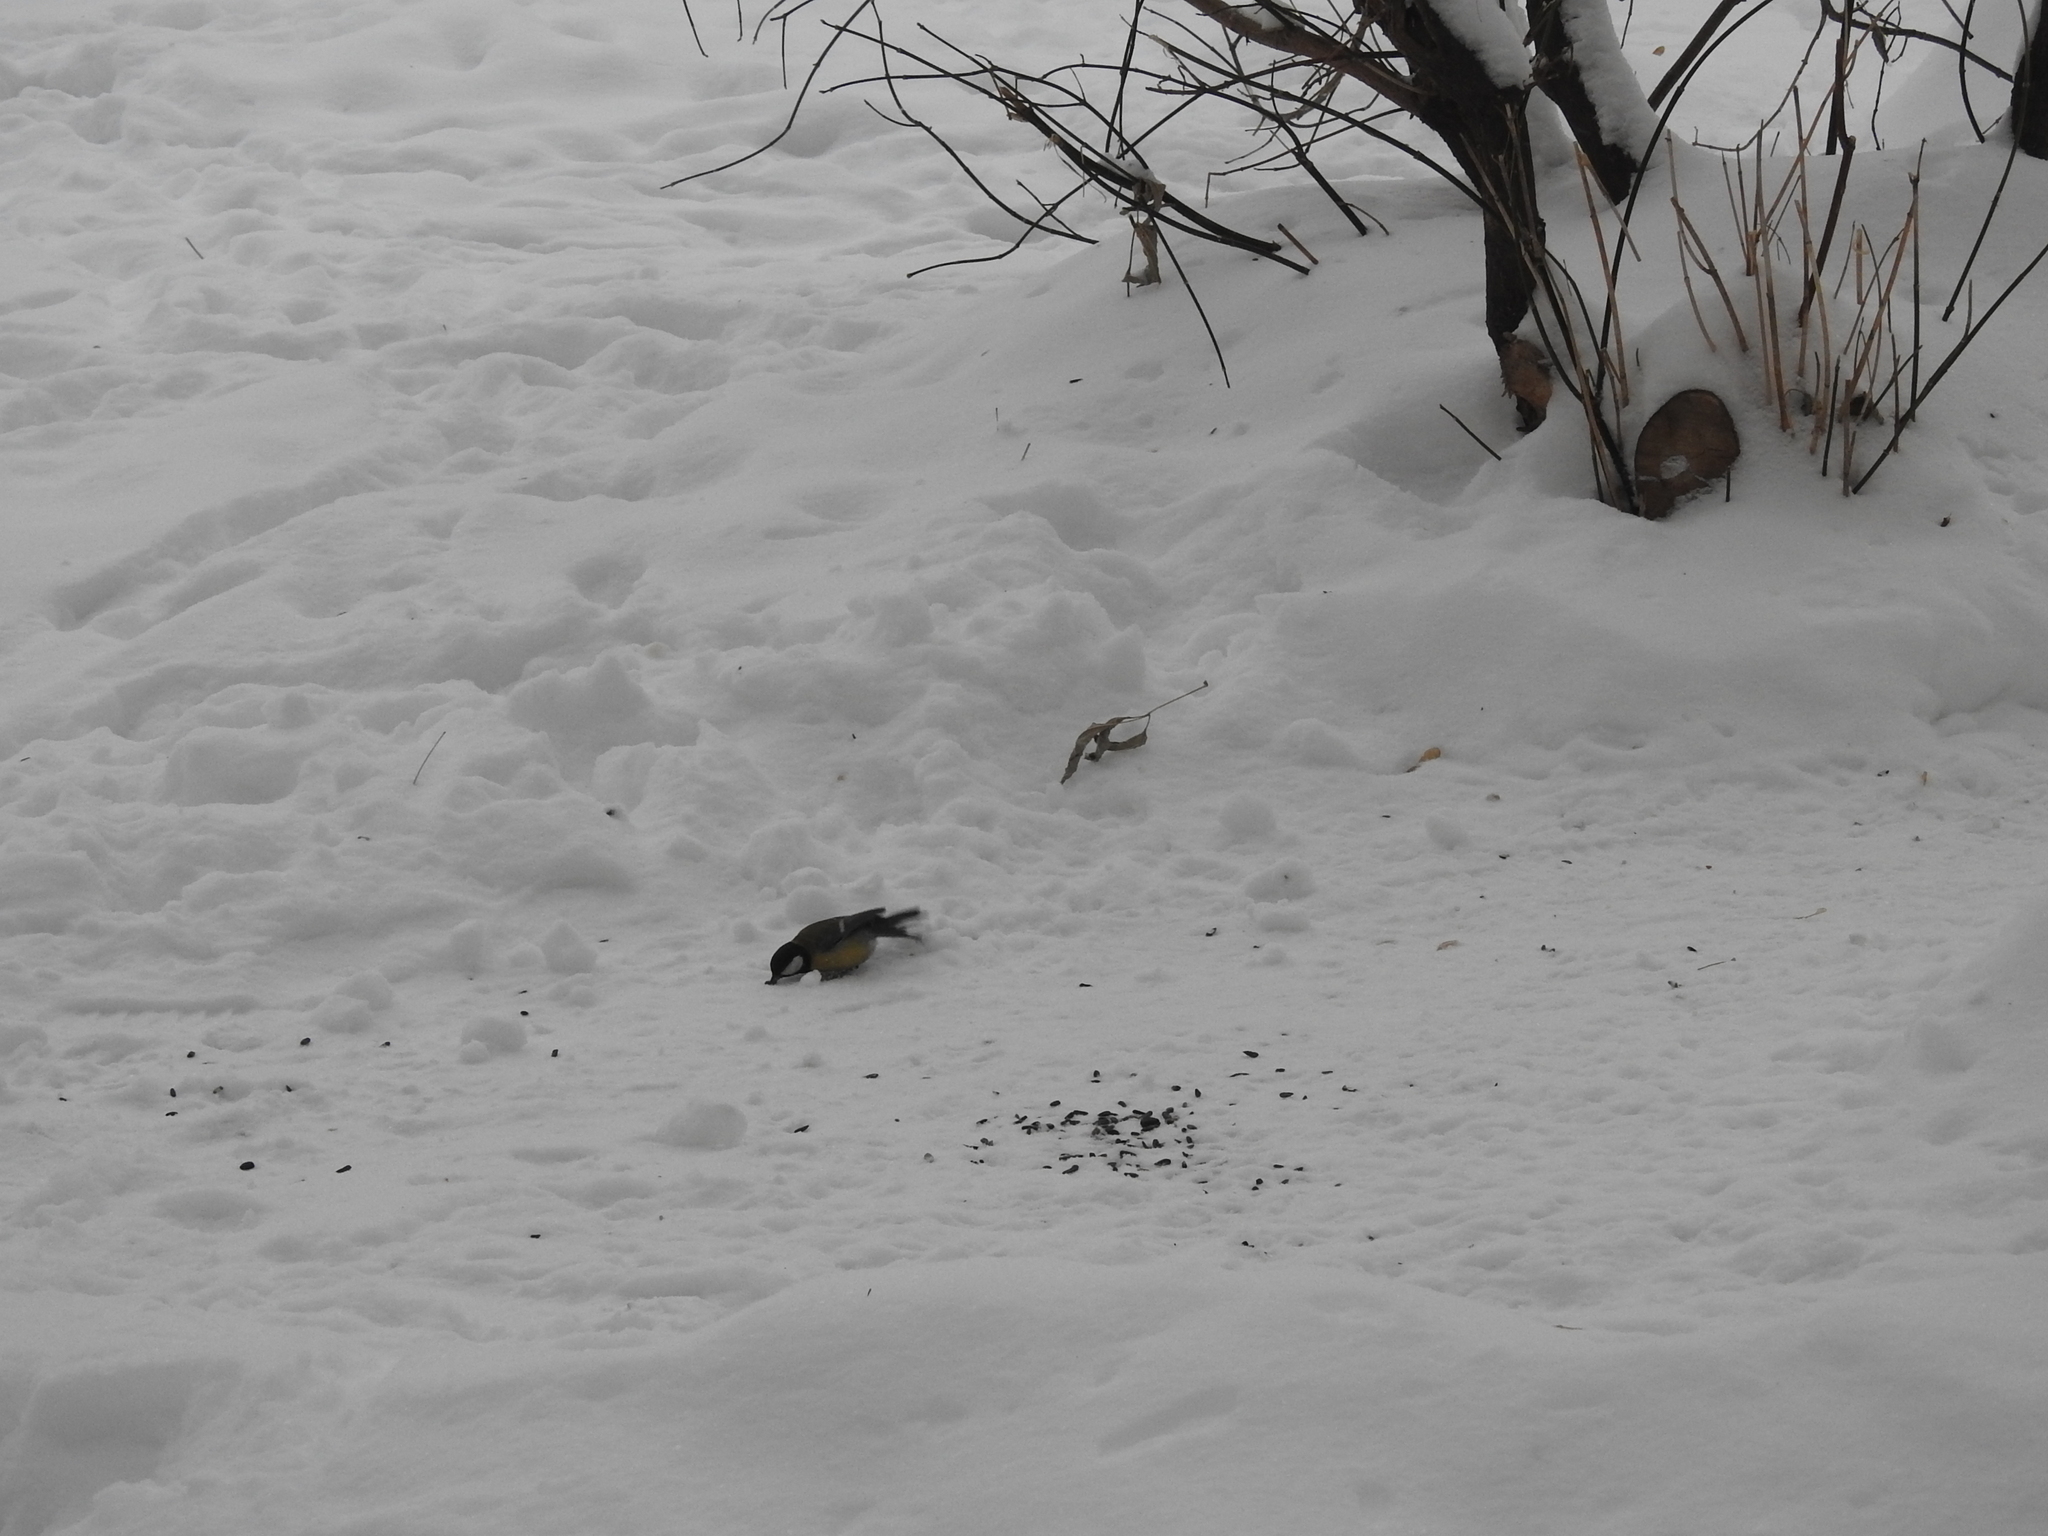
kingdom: Animalia
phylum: Chordata
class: Aves
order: Passeriformes
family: Paridae
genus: Parus
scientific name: Parus major
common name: Great tit
